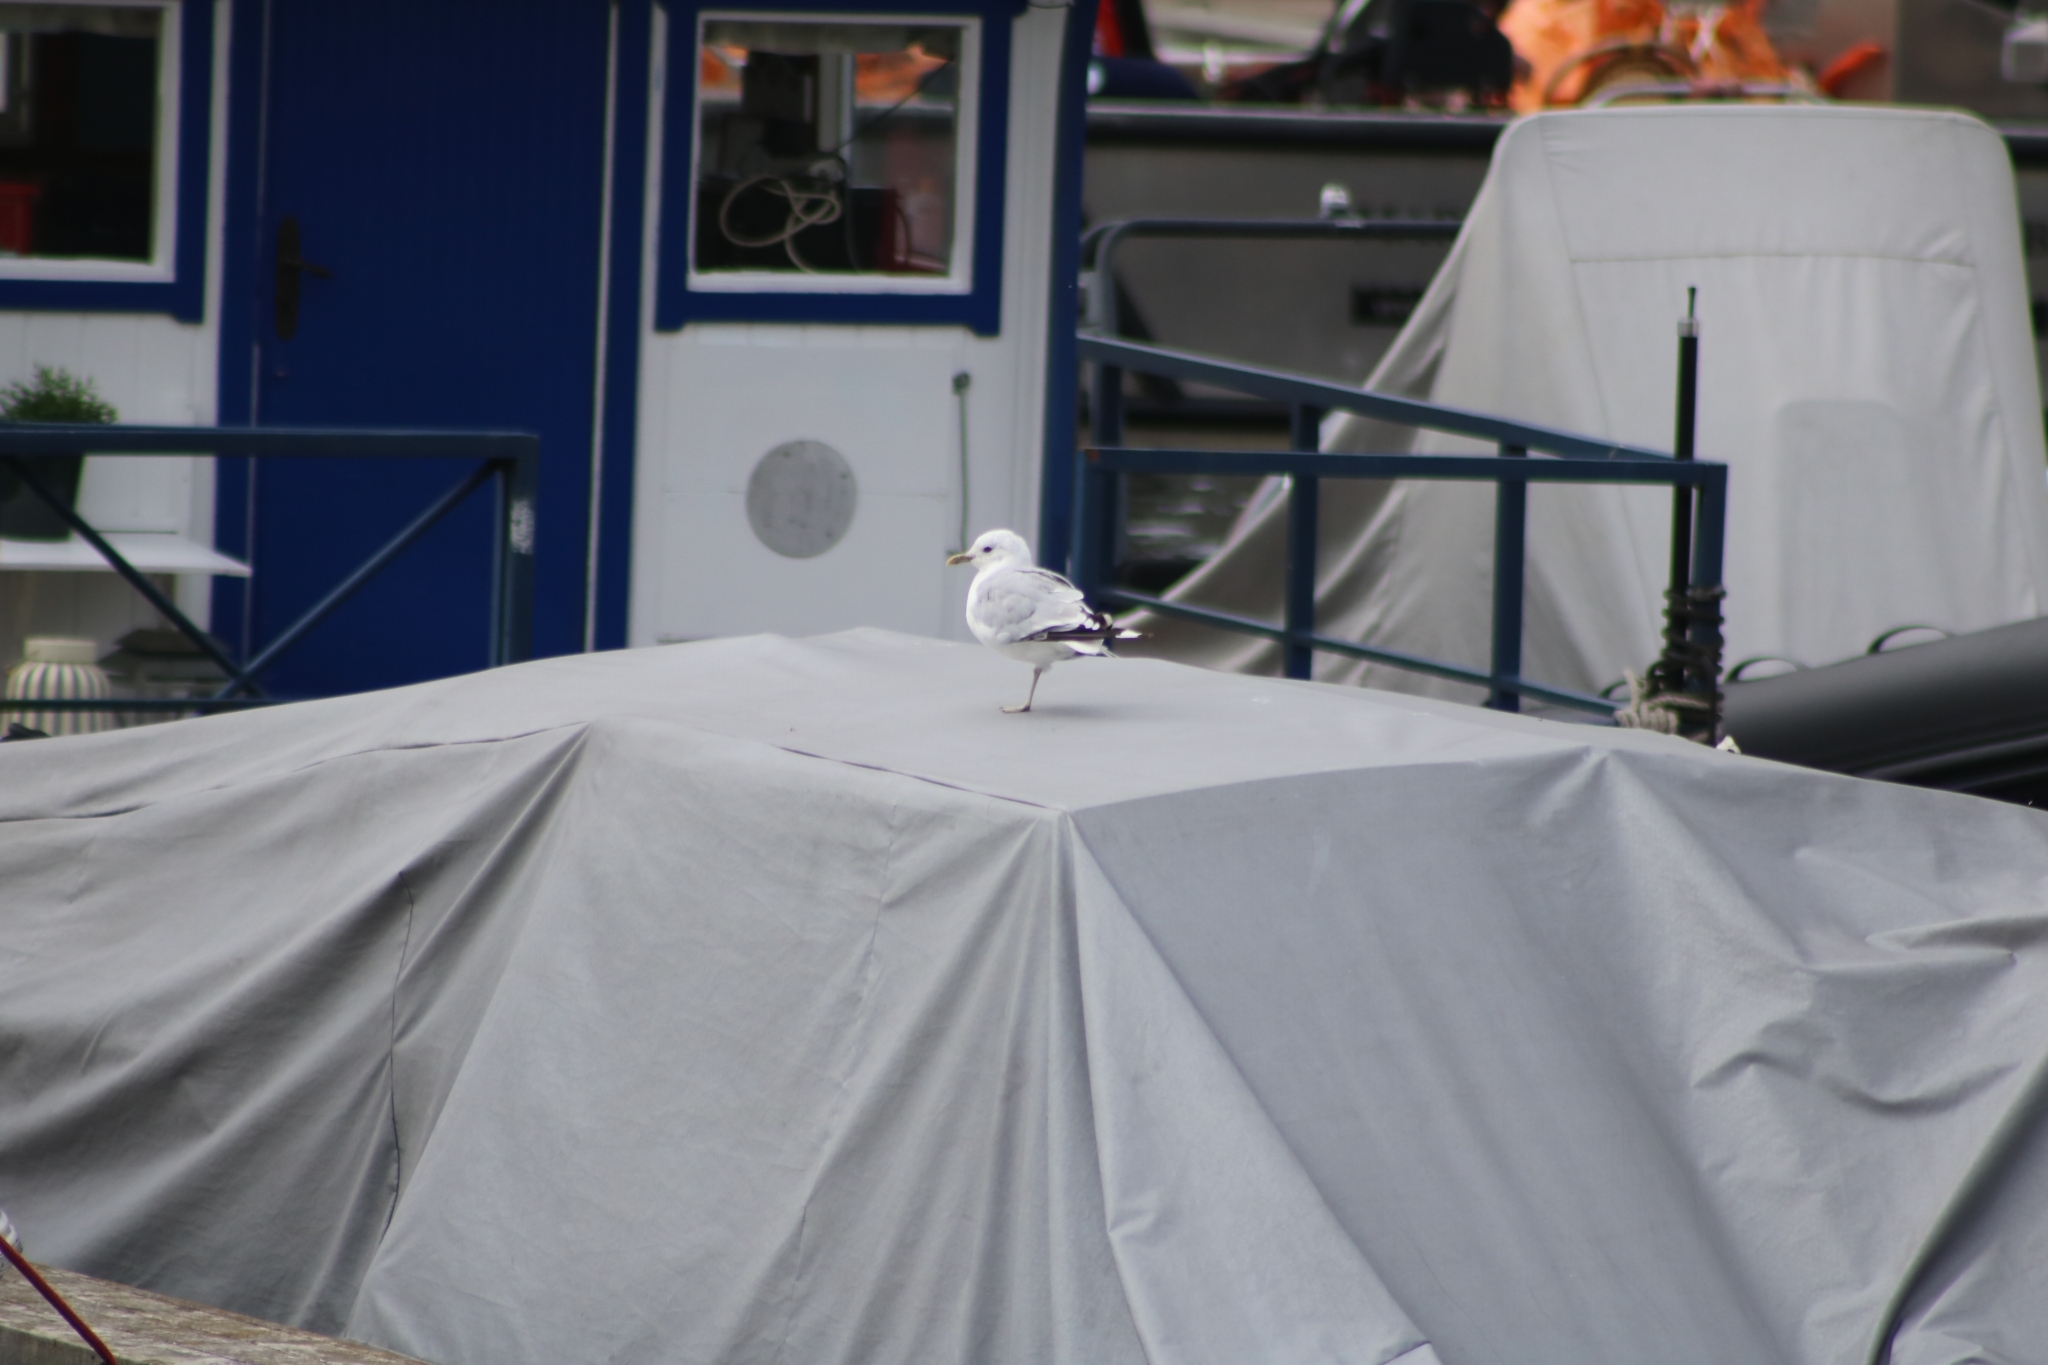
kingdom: Animalia
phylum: Chordata
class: Aves
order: Charadriiformes
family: Laridae
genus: Larus
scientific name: Larus canus
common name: Mew gull
